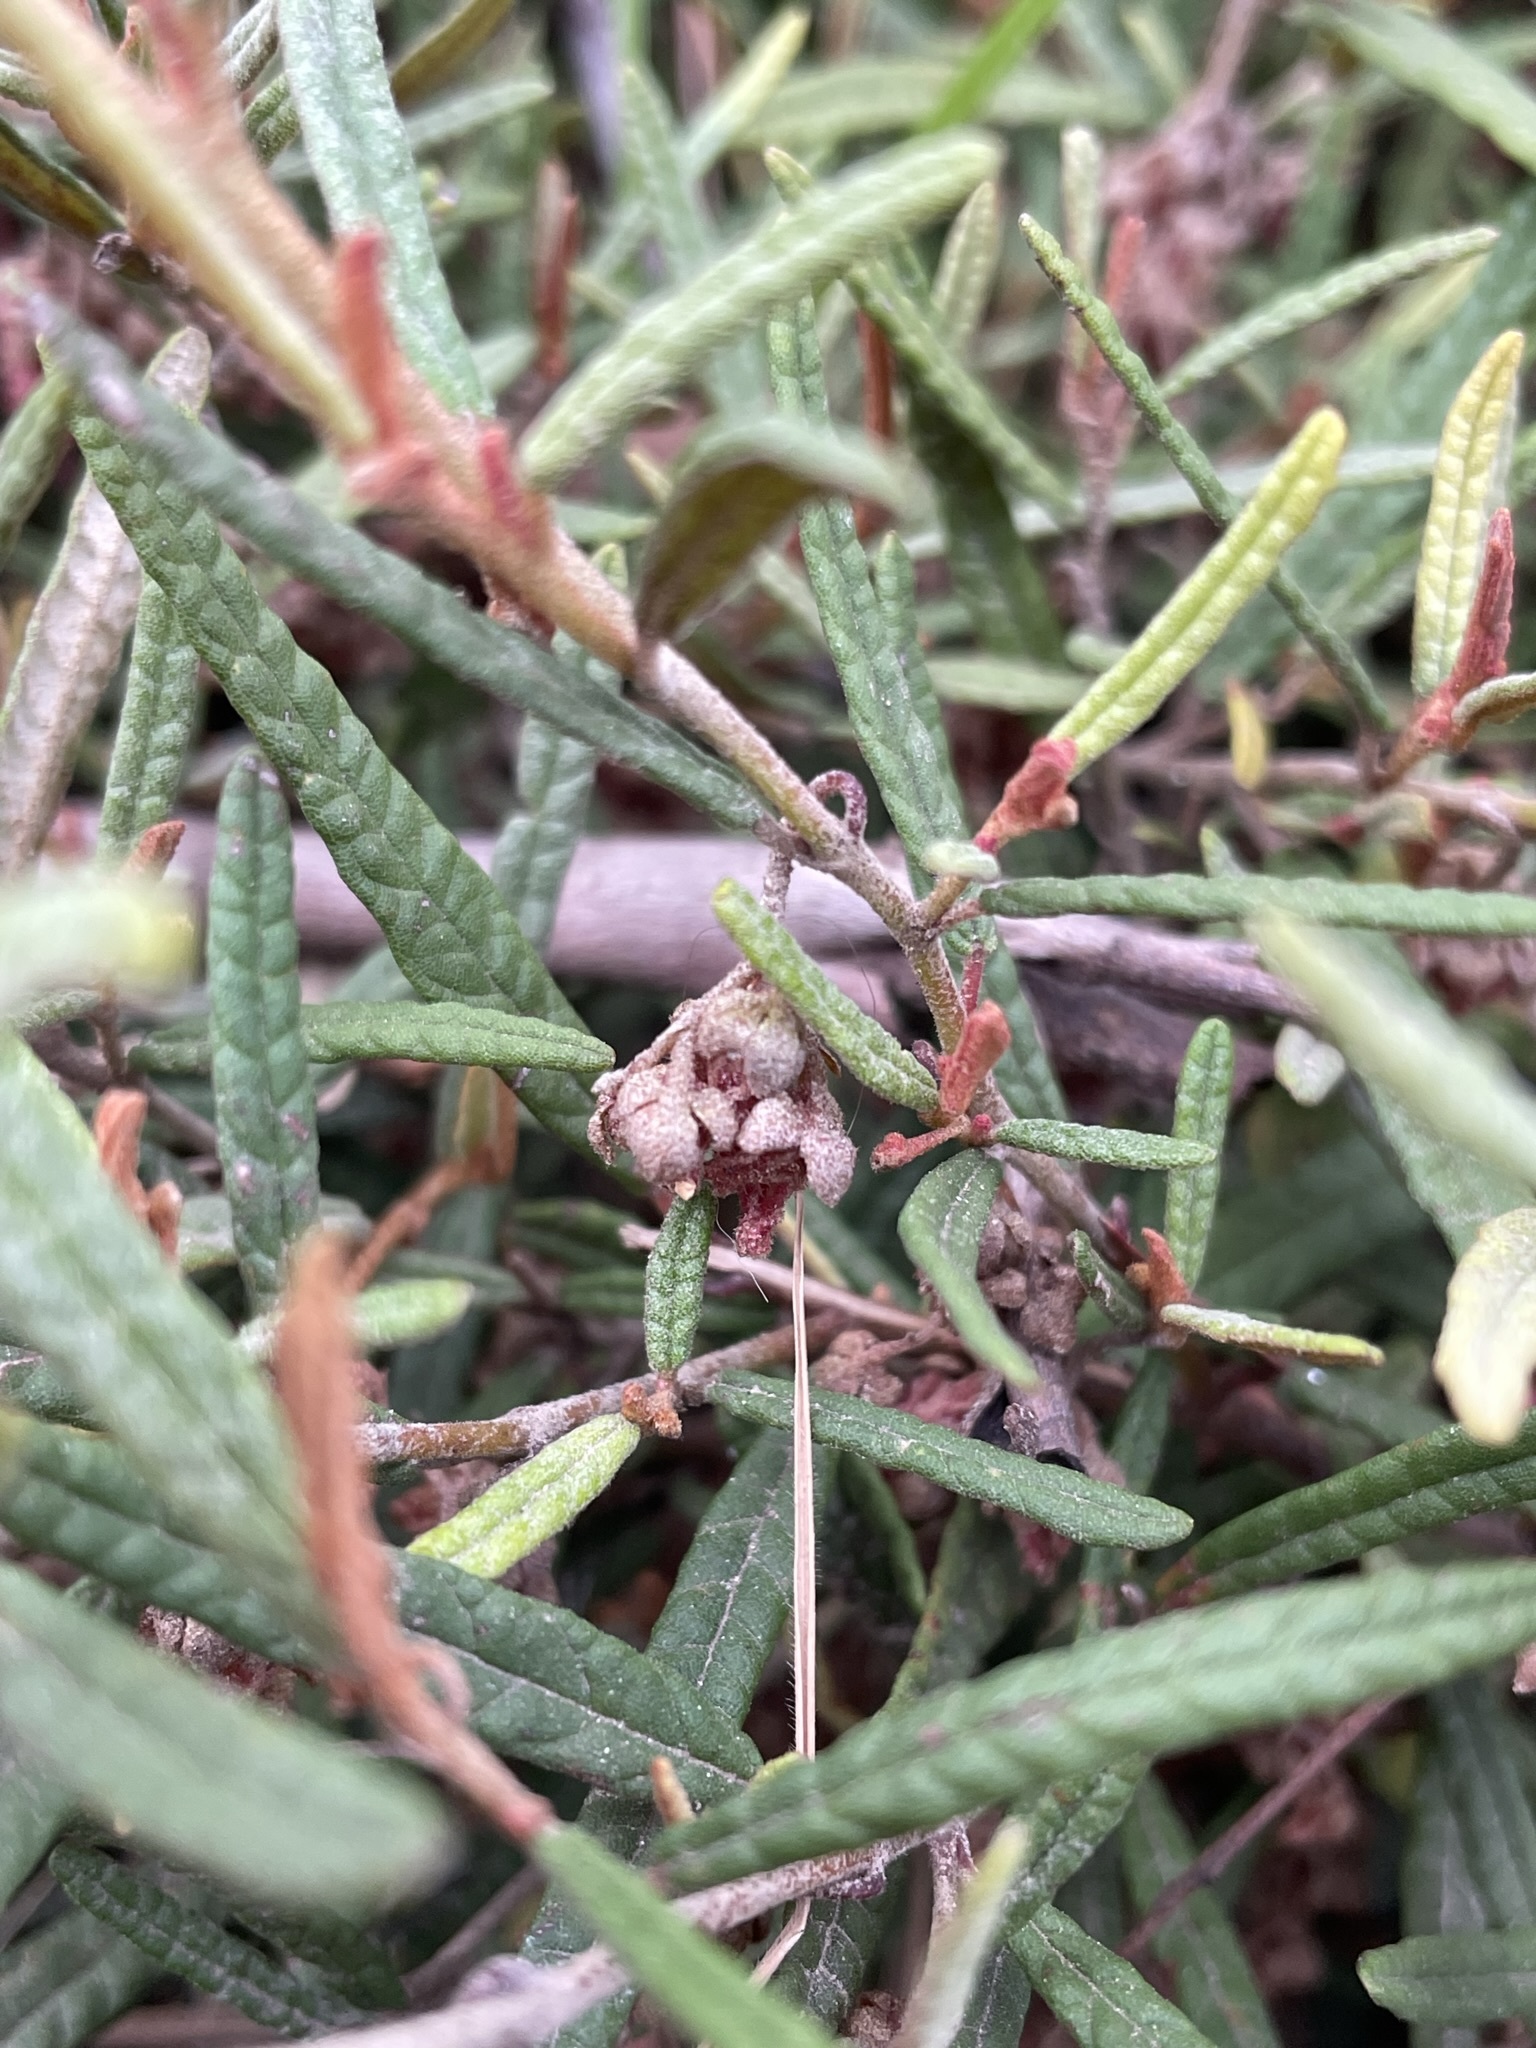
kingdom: Plantae
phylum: Tracheophyta
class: Magnoliopsida
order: Malvales
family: Malvaceae
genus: Lasiopetalum
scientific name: Lasiopetalum micranthum
